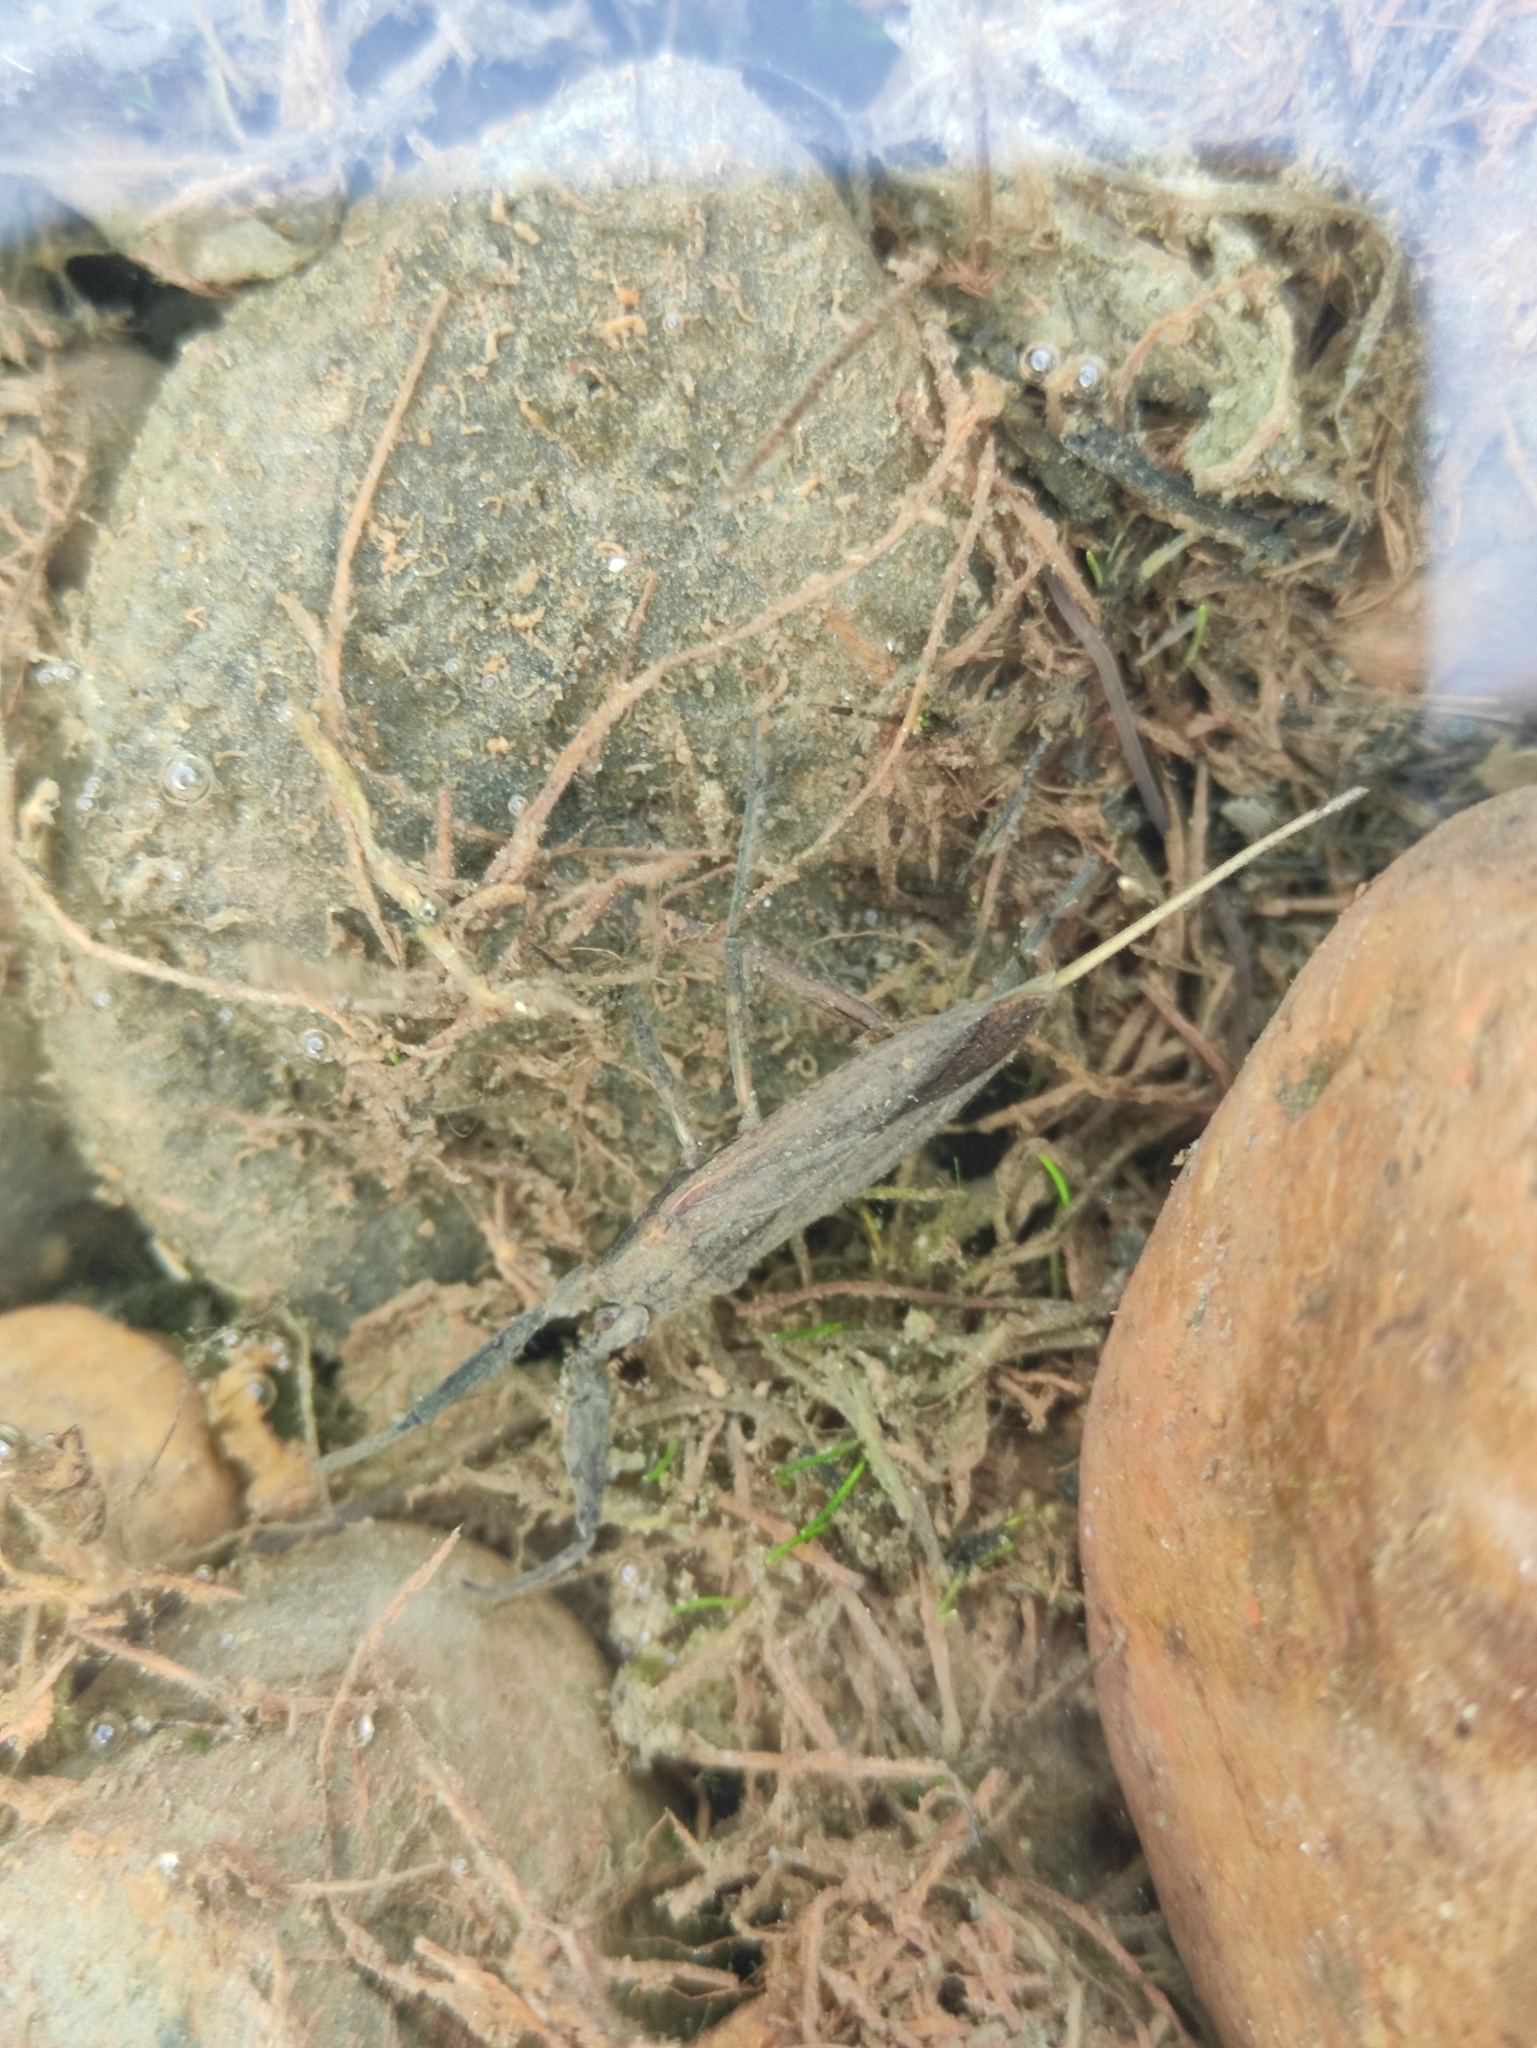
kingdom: Animalia
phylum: Arthropoda
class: Insecta
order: Hemiptera
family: Nepidae
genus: Nepa
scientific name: Nepa cinerea
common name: Water scorpion
